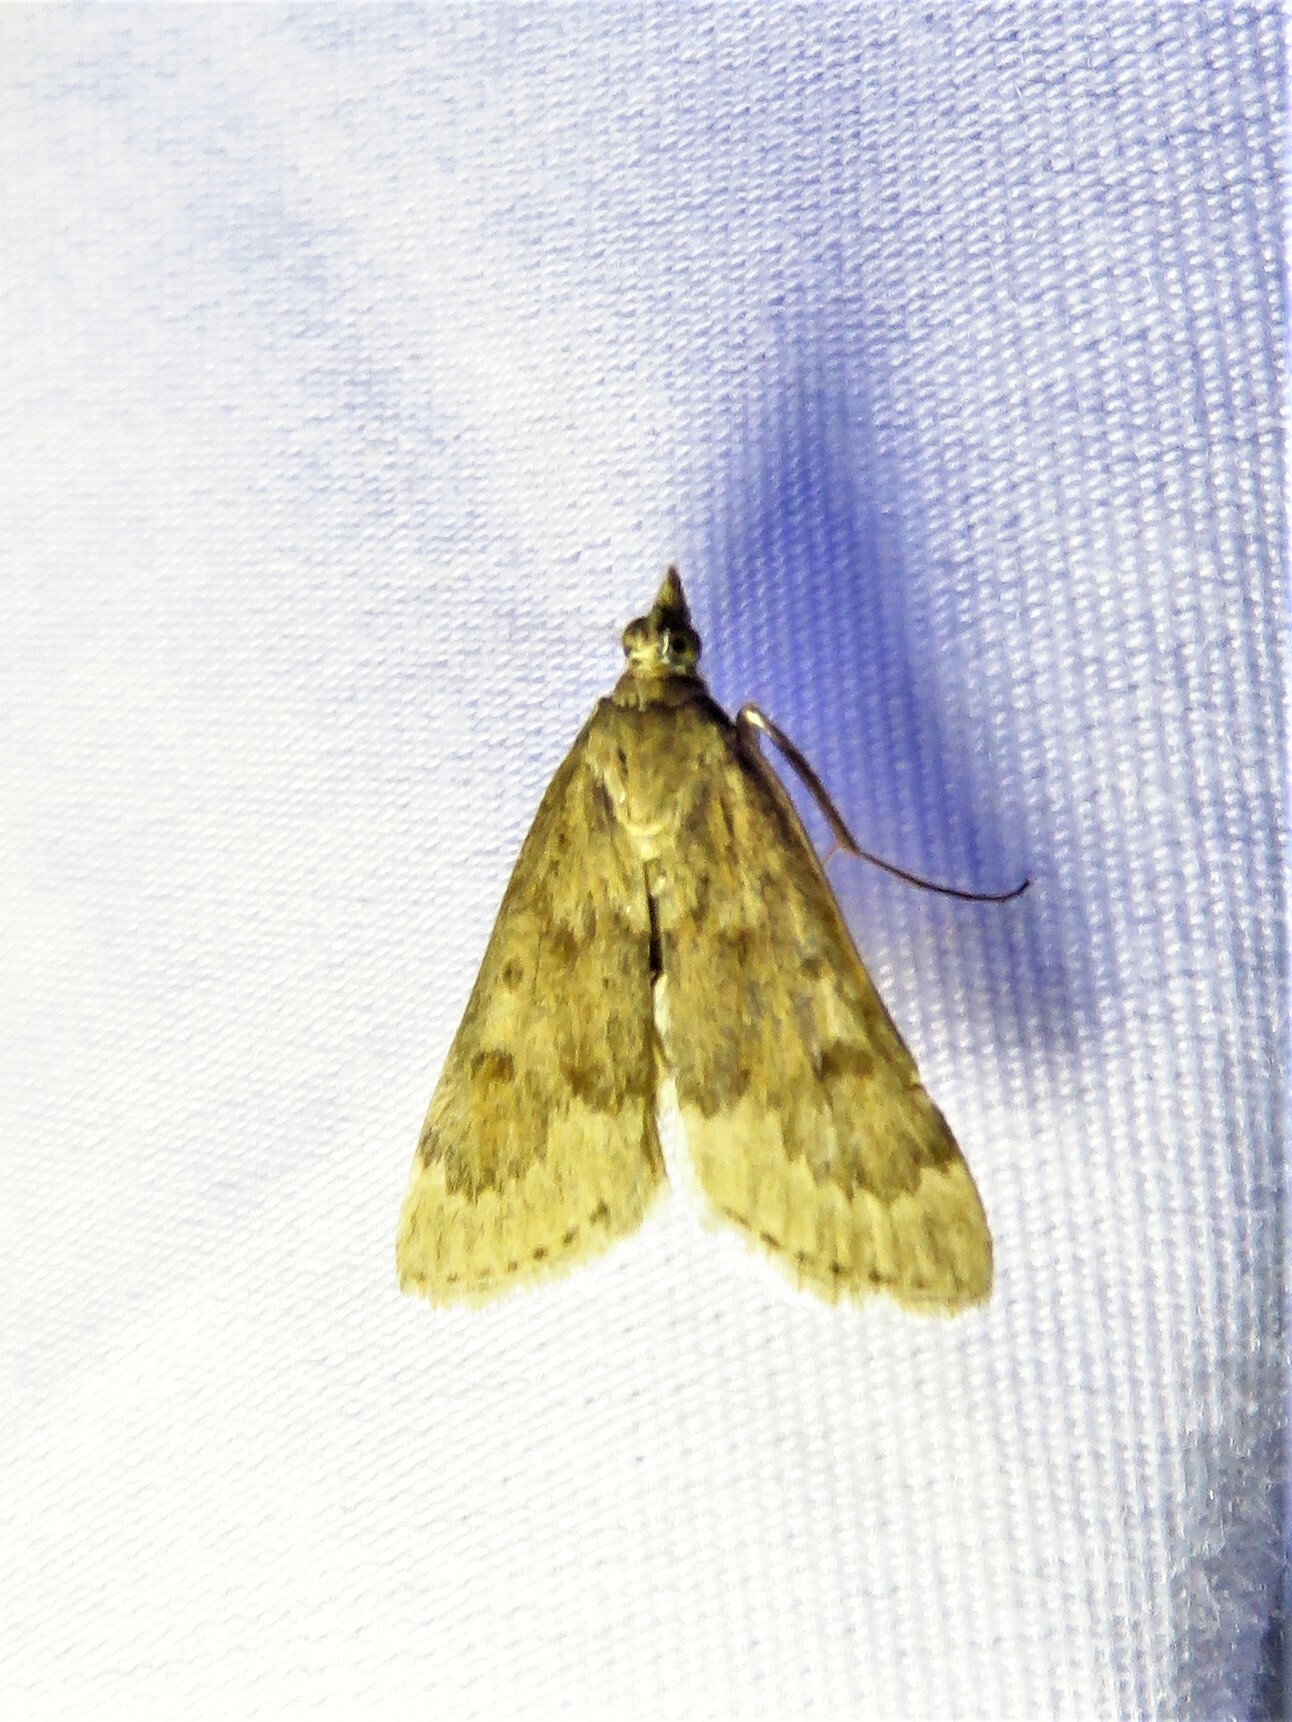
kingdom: Animalia
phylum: Arthropoda
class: Insecta
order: Lepidoptera
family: Crambidae
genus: Achyra
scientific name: Achyra rantalis
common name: Garden webworm
